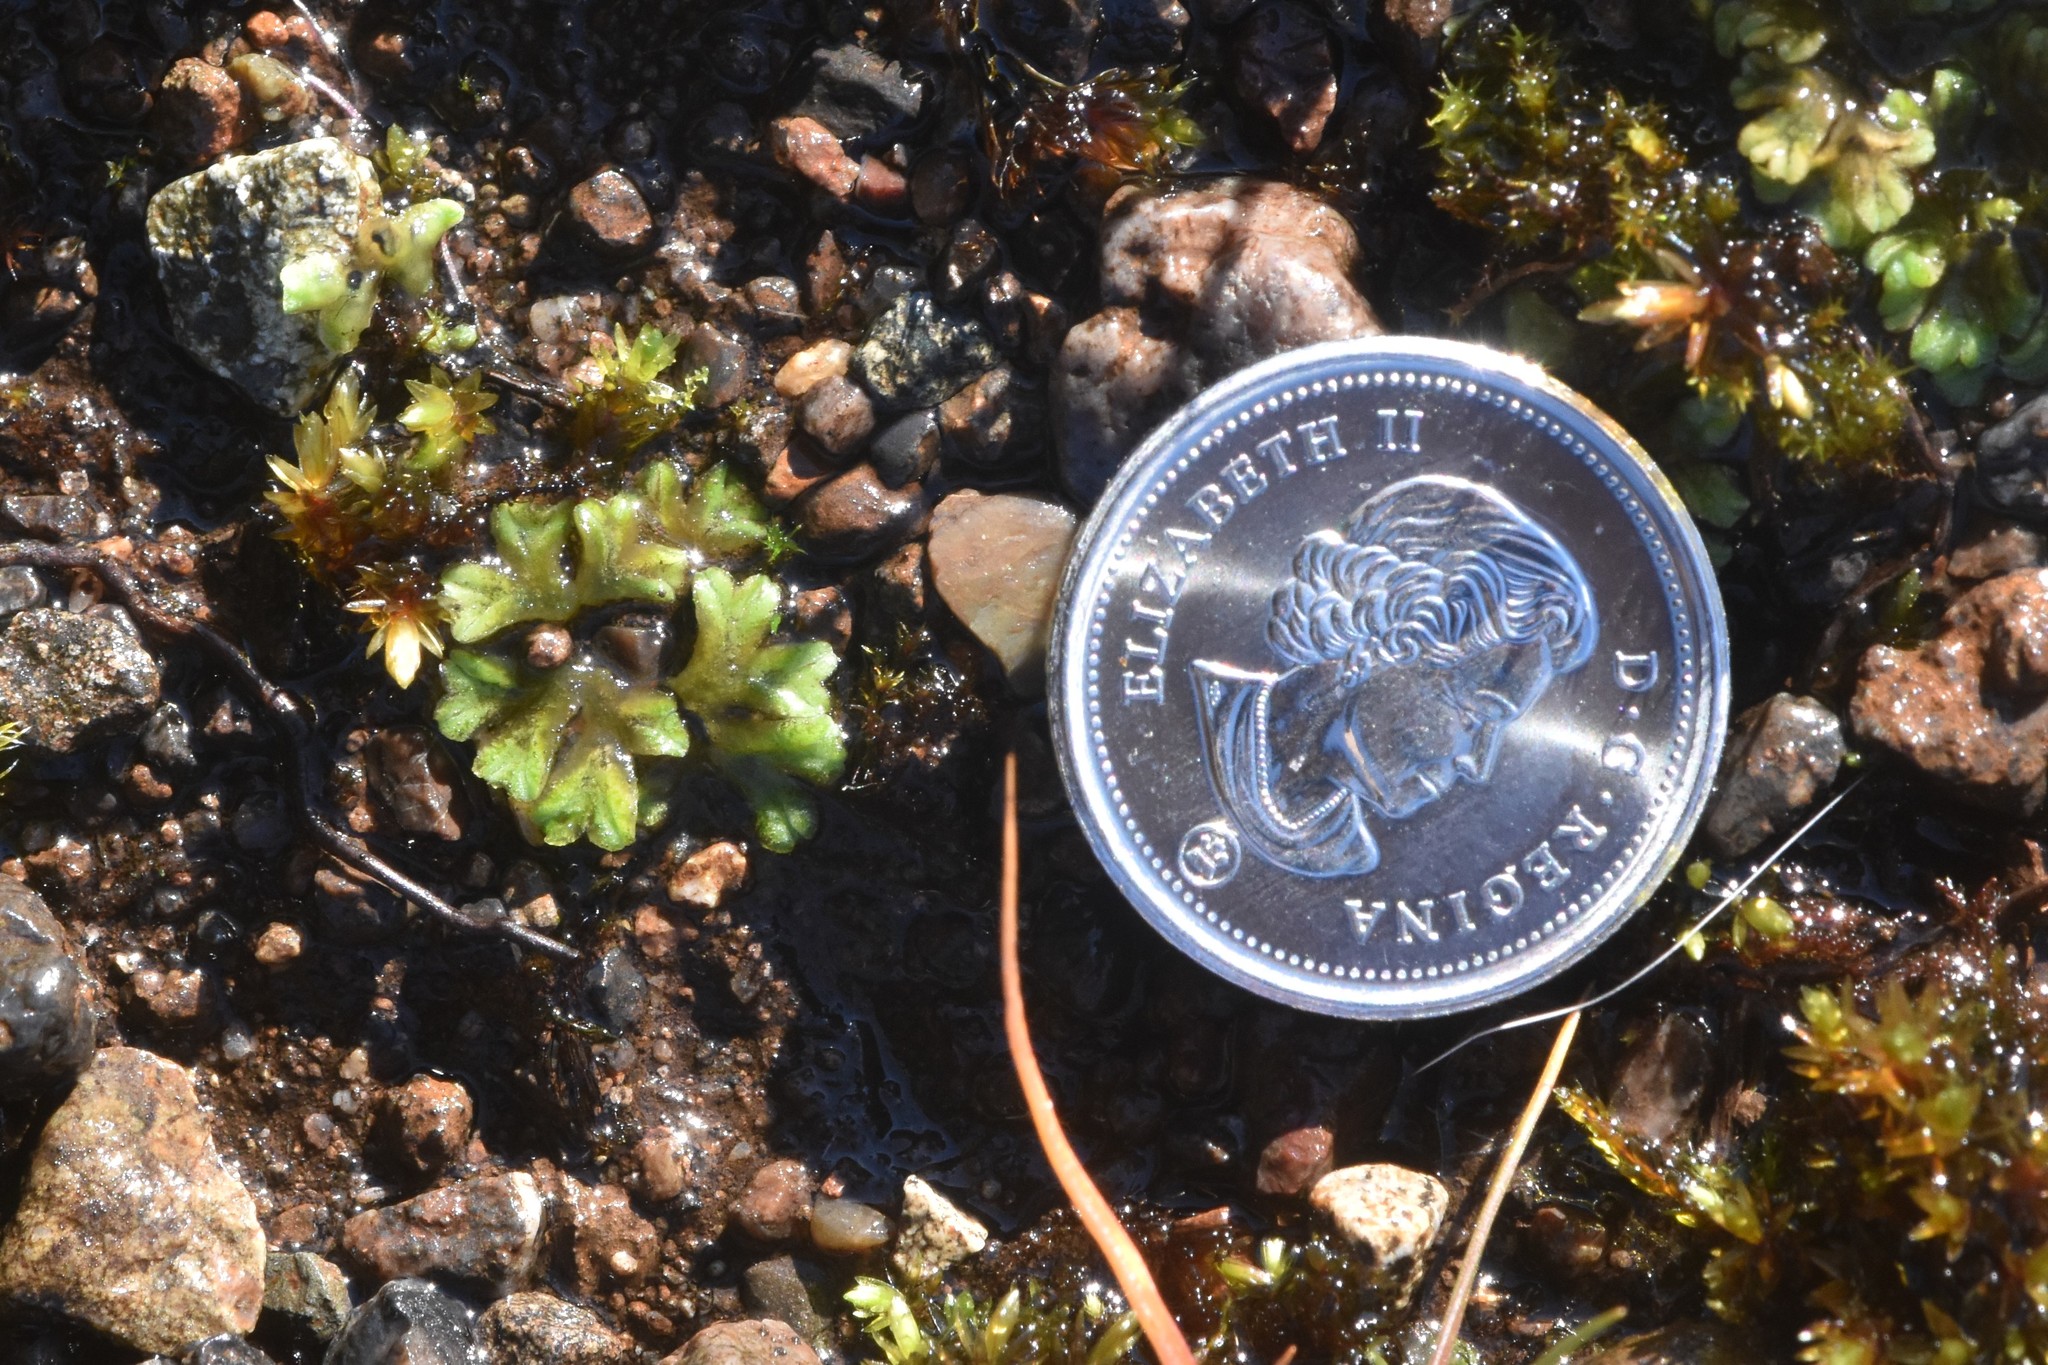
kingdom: Plantae
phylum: Marchantiophyta
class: Marchantiopsida
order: Marchantiales
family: Ricciaceae
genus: Riccia
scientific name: Riccia sorocarpa
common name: Common crystalwort
